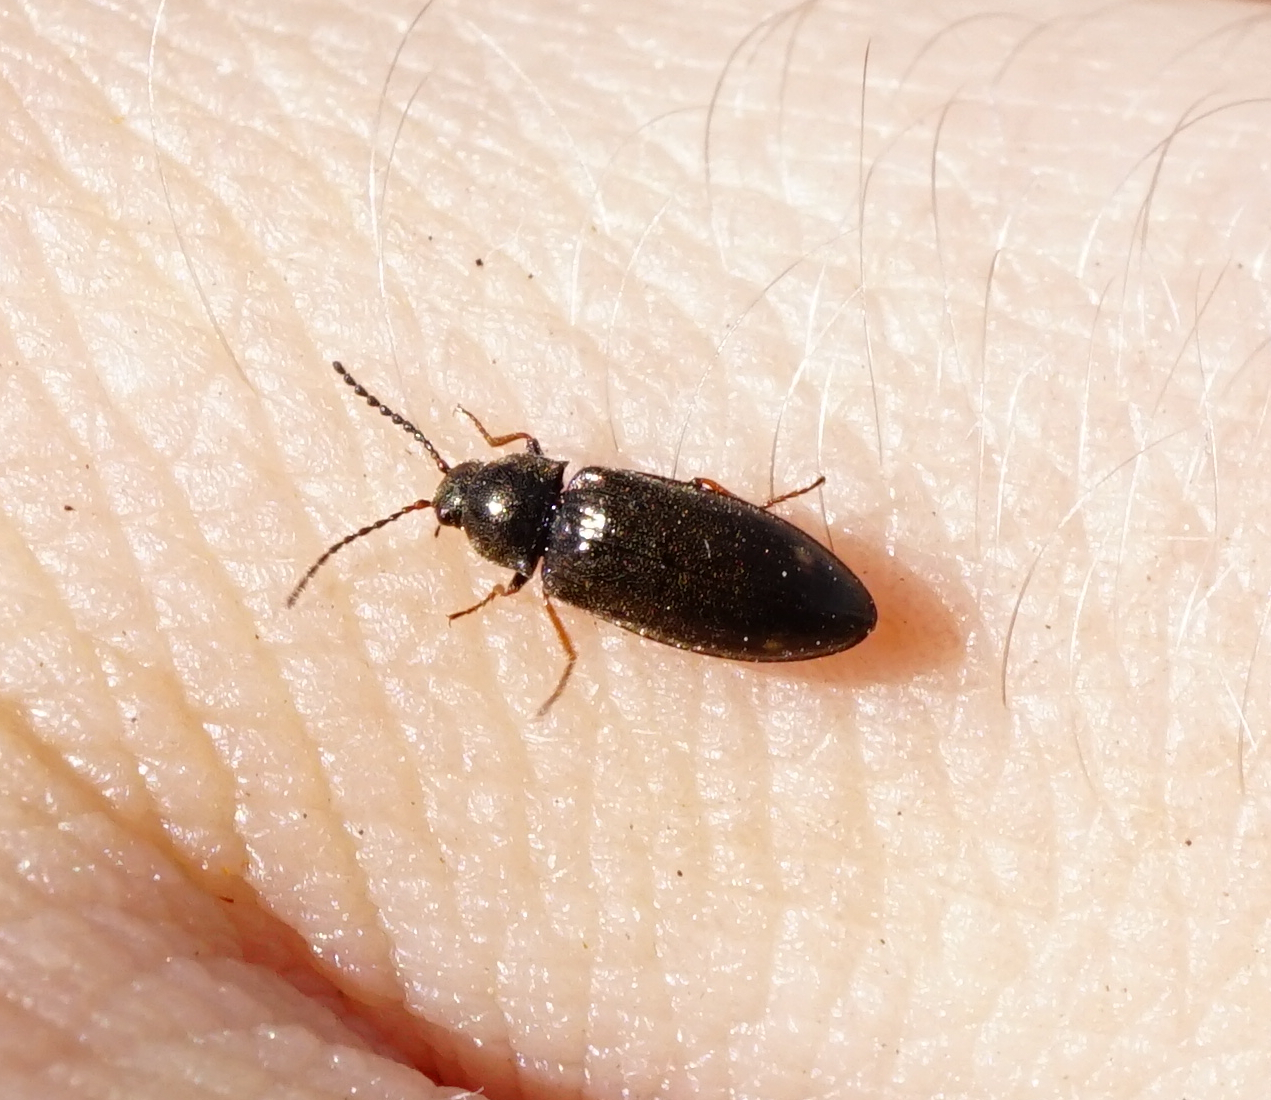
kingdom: Animalia
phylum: Arthropoda
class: Insecta
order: Coleoptera
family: Elateridae
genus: Eanus
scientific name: Eanus guttatus
